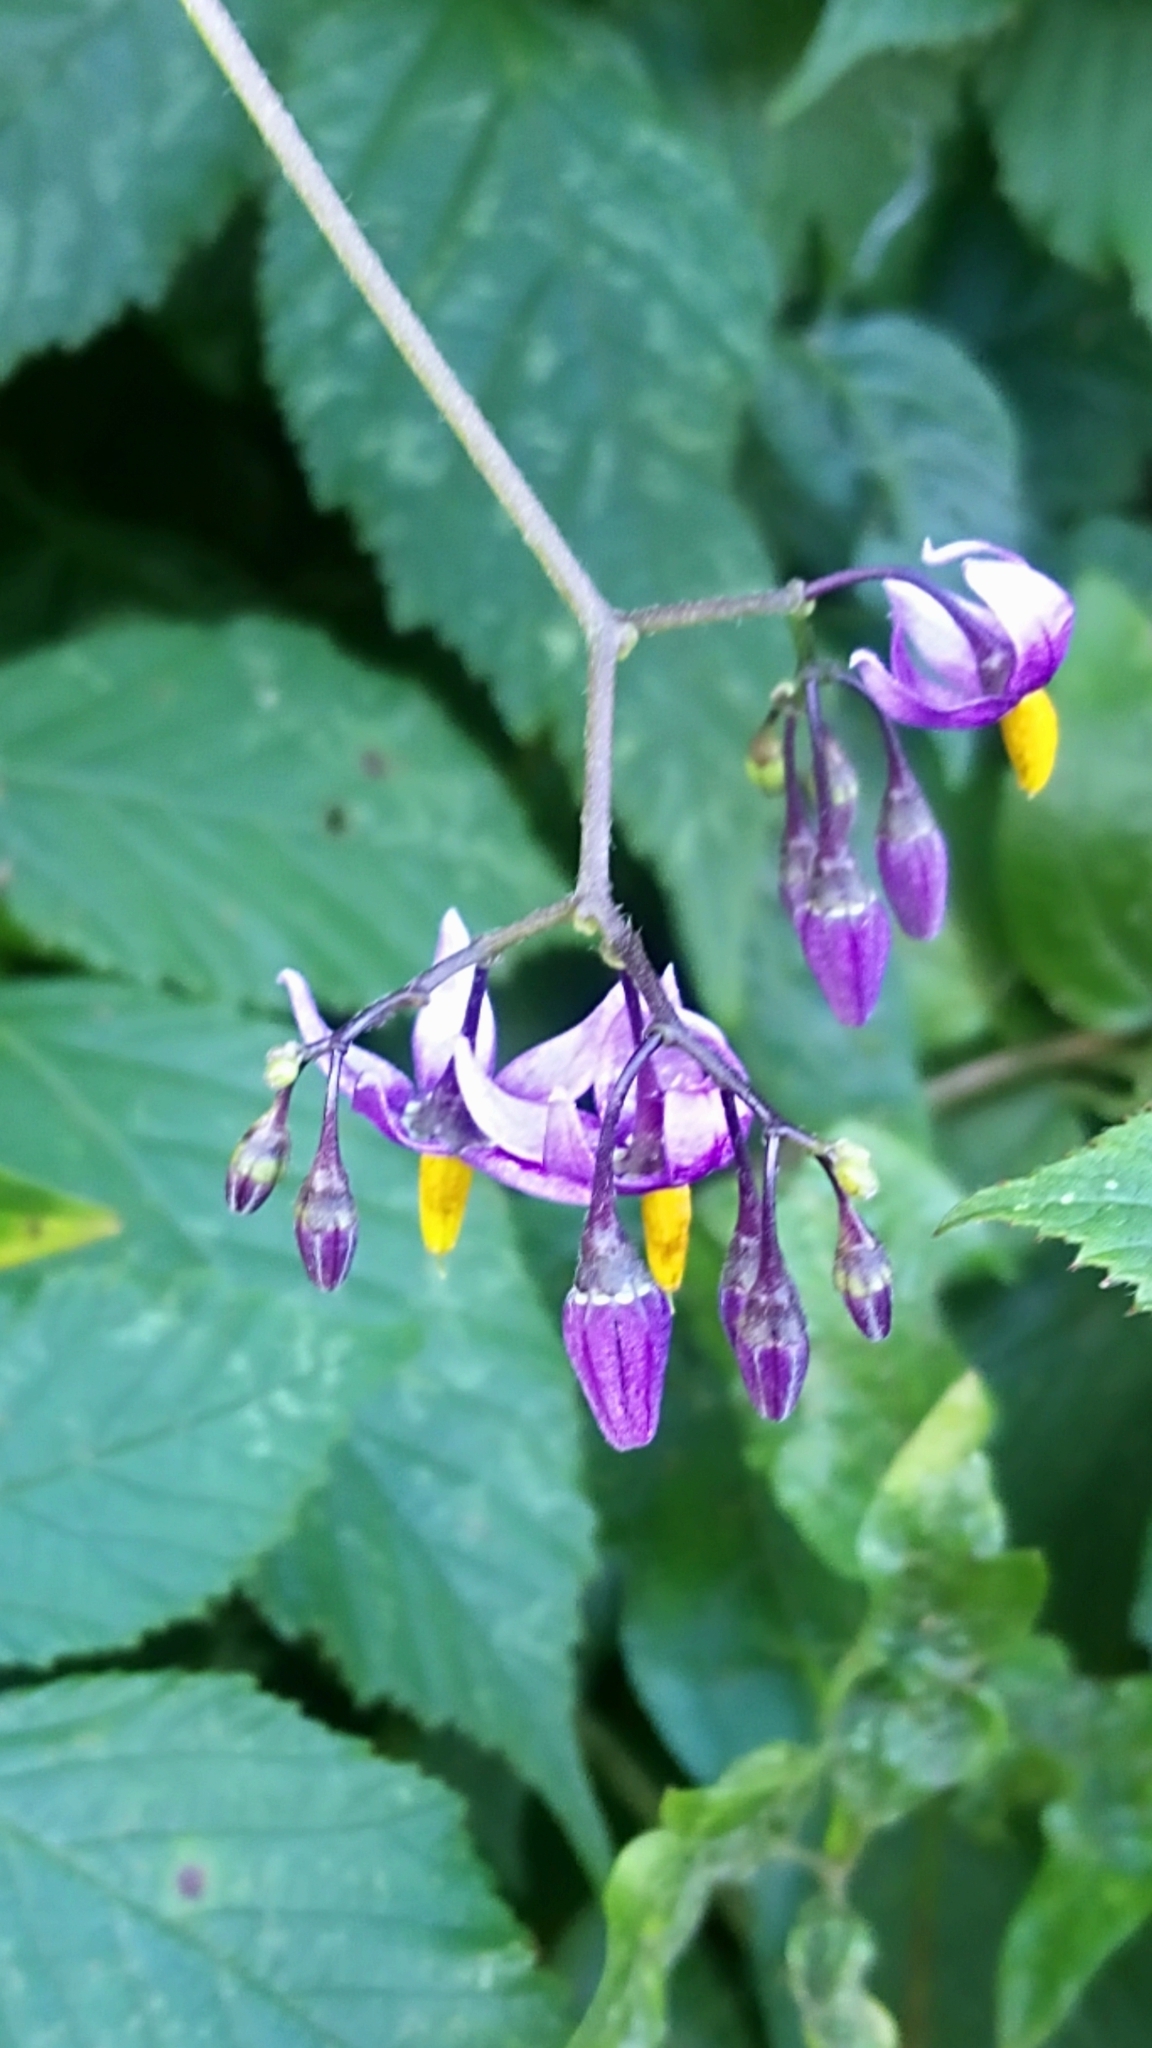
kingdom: Plantae
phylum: Tracheophyta
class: Magnoliopsida
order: Solanales
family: Solanaceae
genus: Solanum
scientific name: Solanum dulcamara
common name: Climbing nightshade
